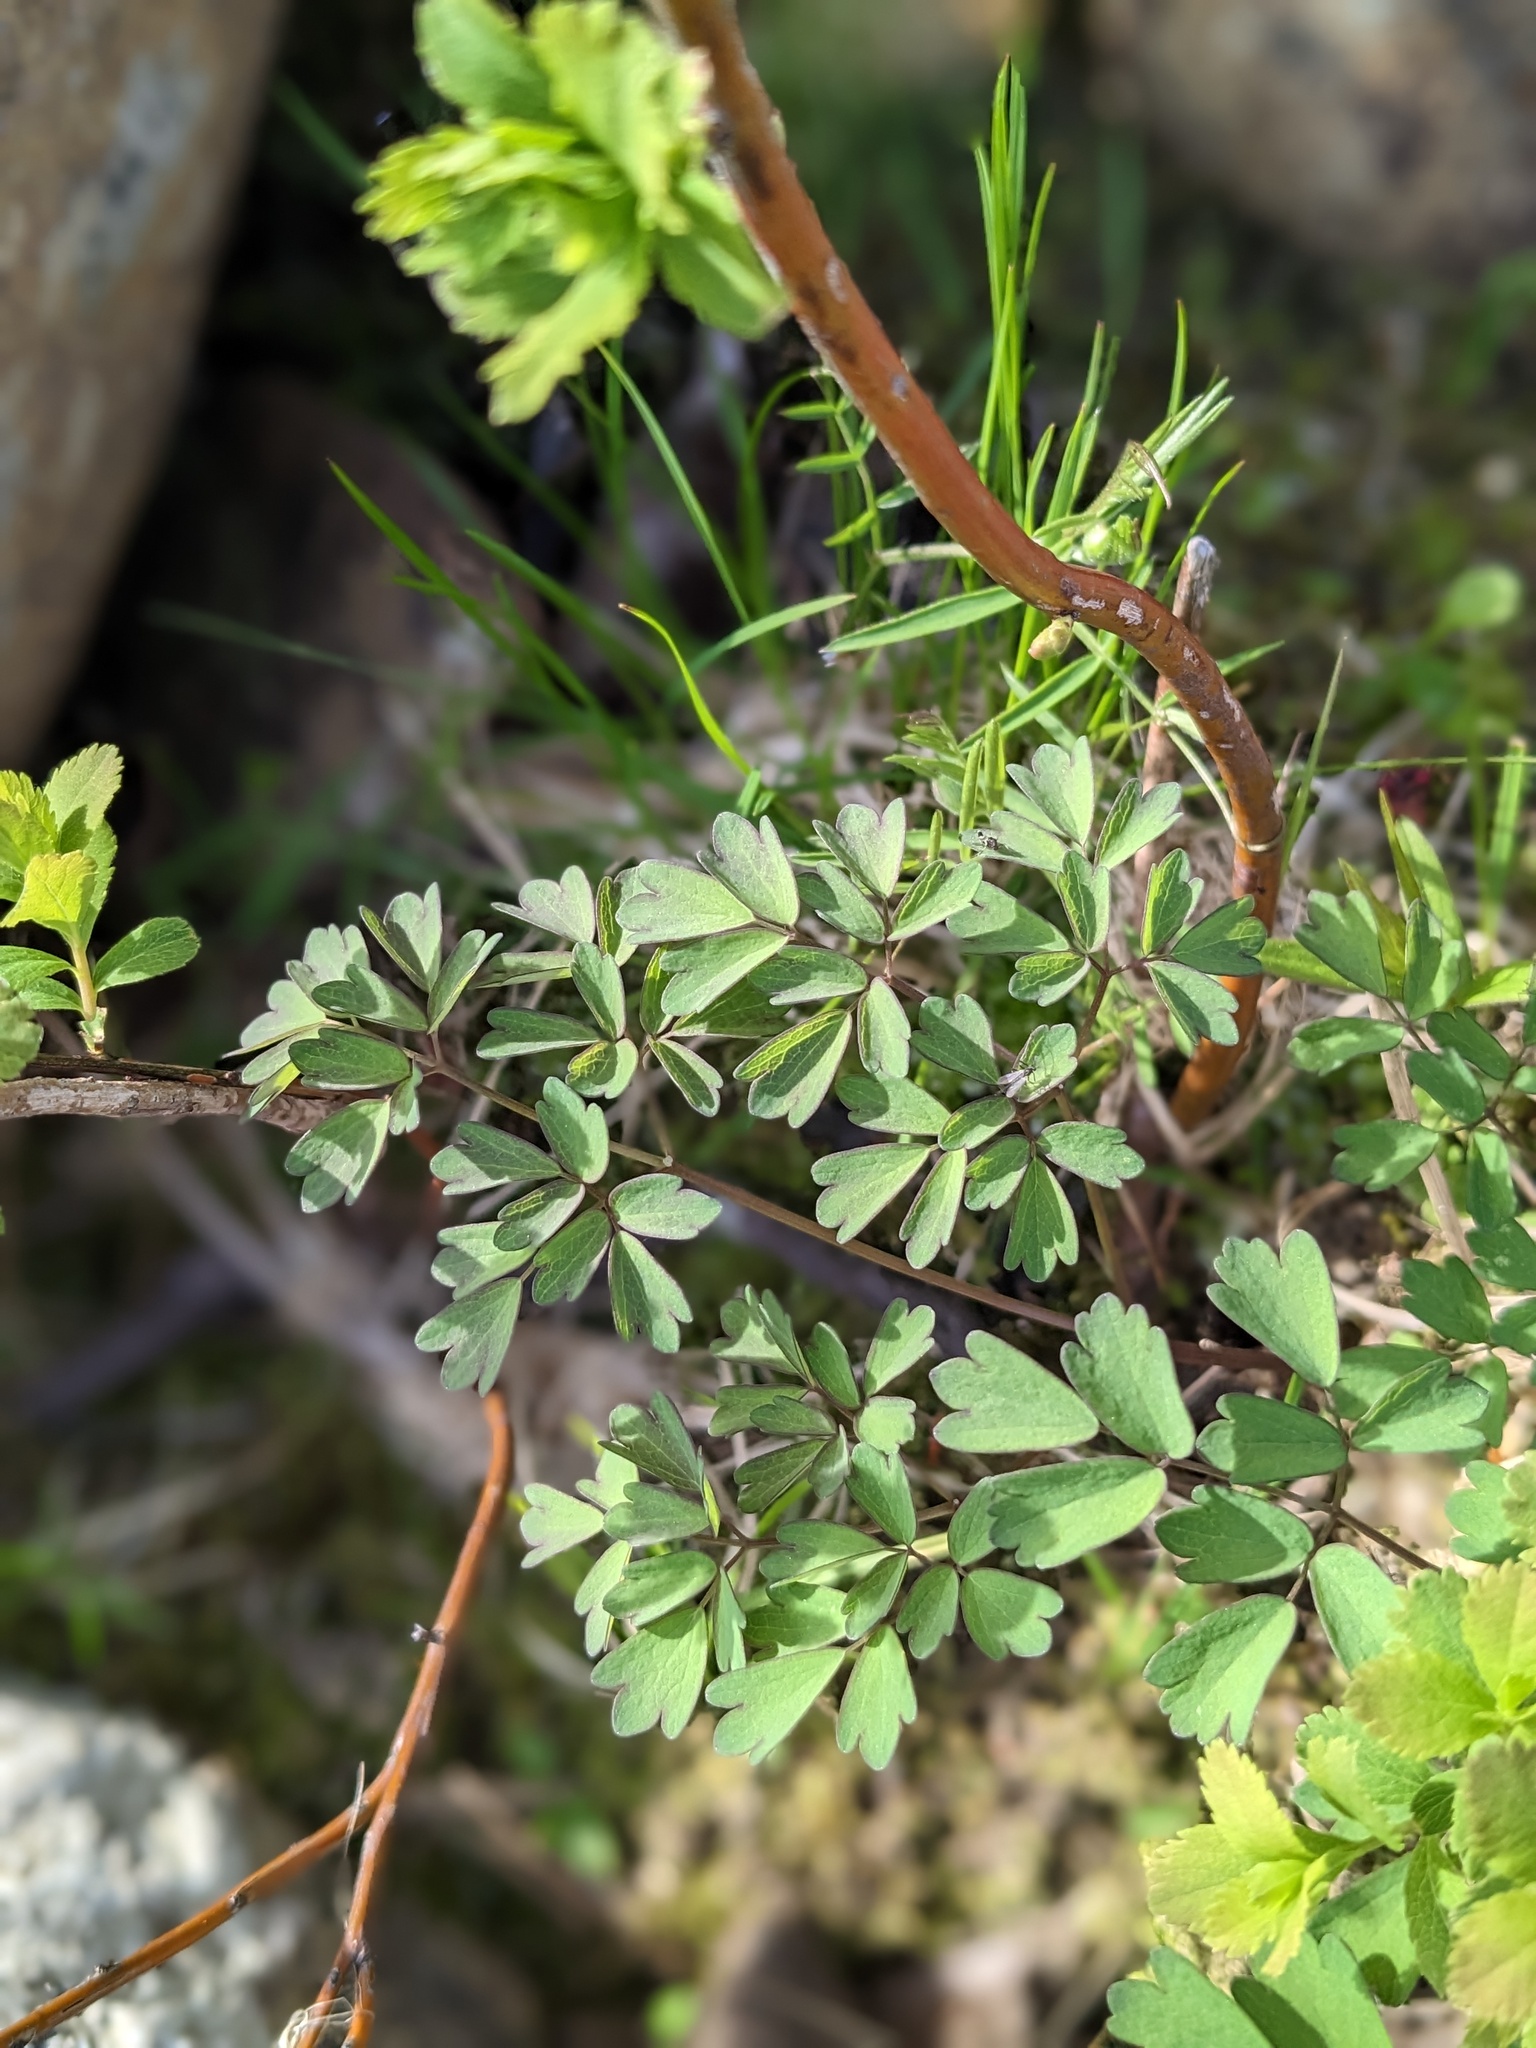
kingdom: Plantae
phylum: Tracheophyta
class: Magnoliopsida
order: Ranunculales
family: Ranunculaceae
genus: Thalictrum
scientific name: Thalictrum pubescens
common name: King-of-the-meadow
